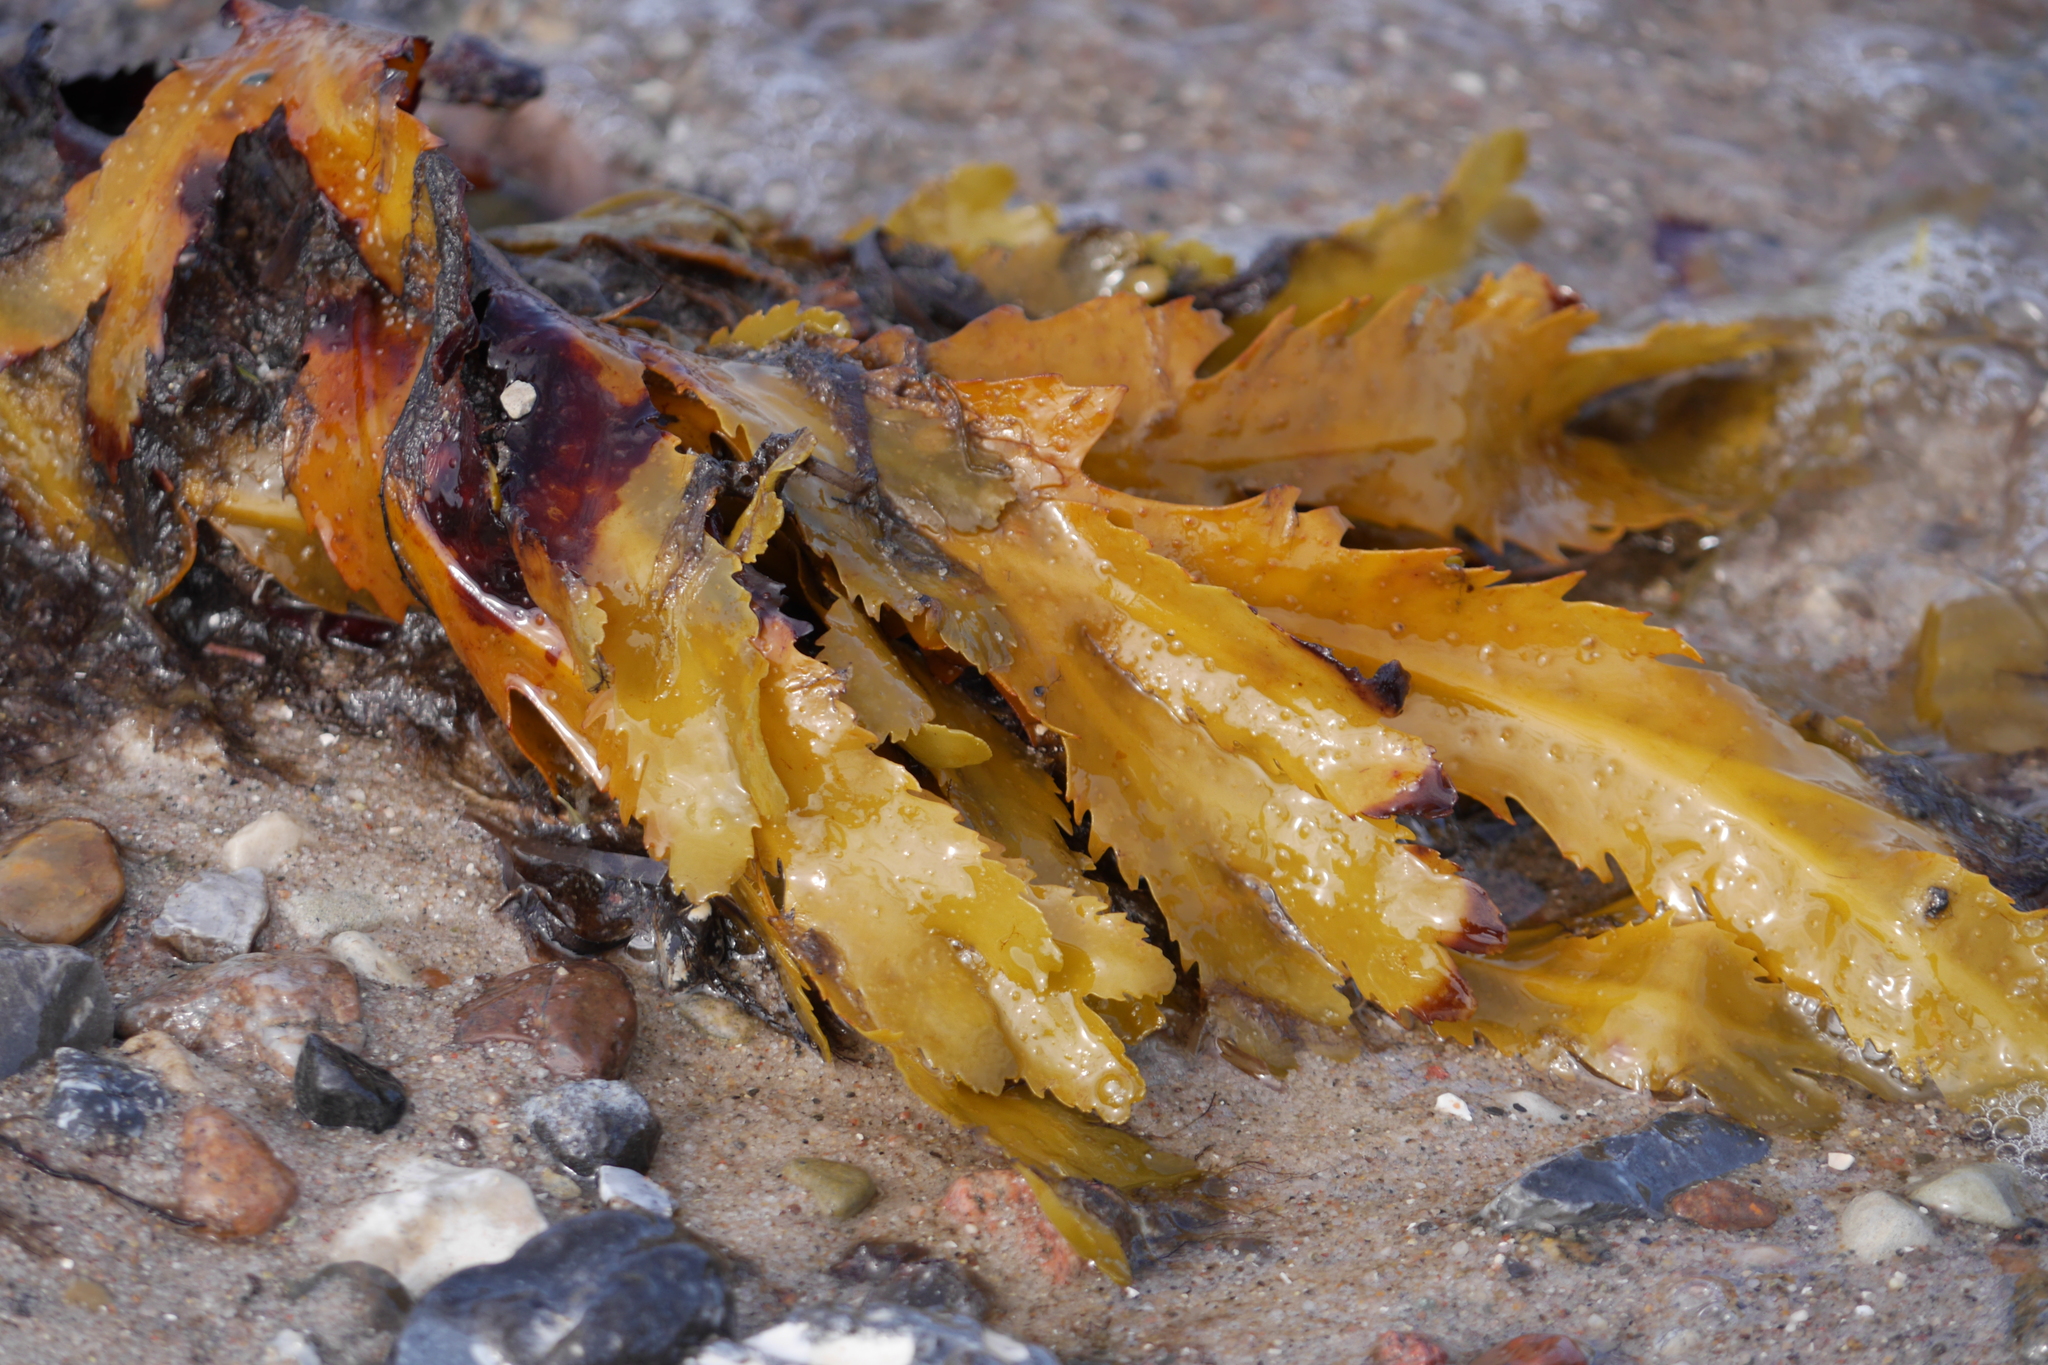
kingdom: Chromista
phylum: Ochrophyta
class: Phaeophyceae
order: Fucales
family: Fucaceae
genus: Fucus
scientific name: Fucus serratus
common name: Toothed wrack
